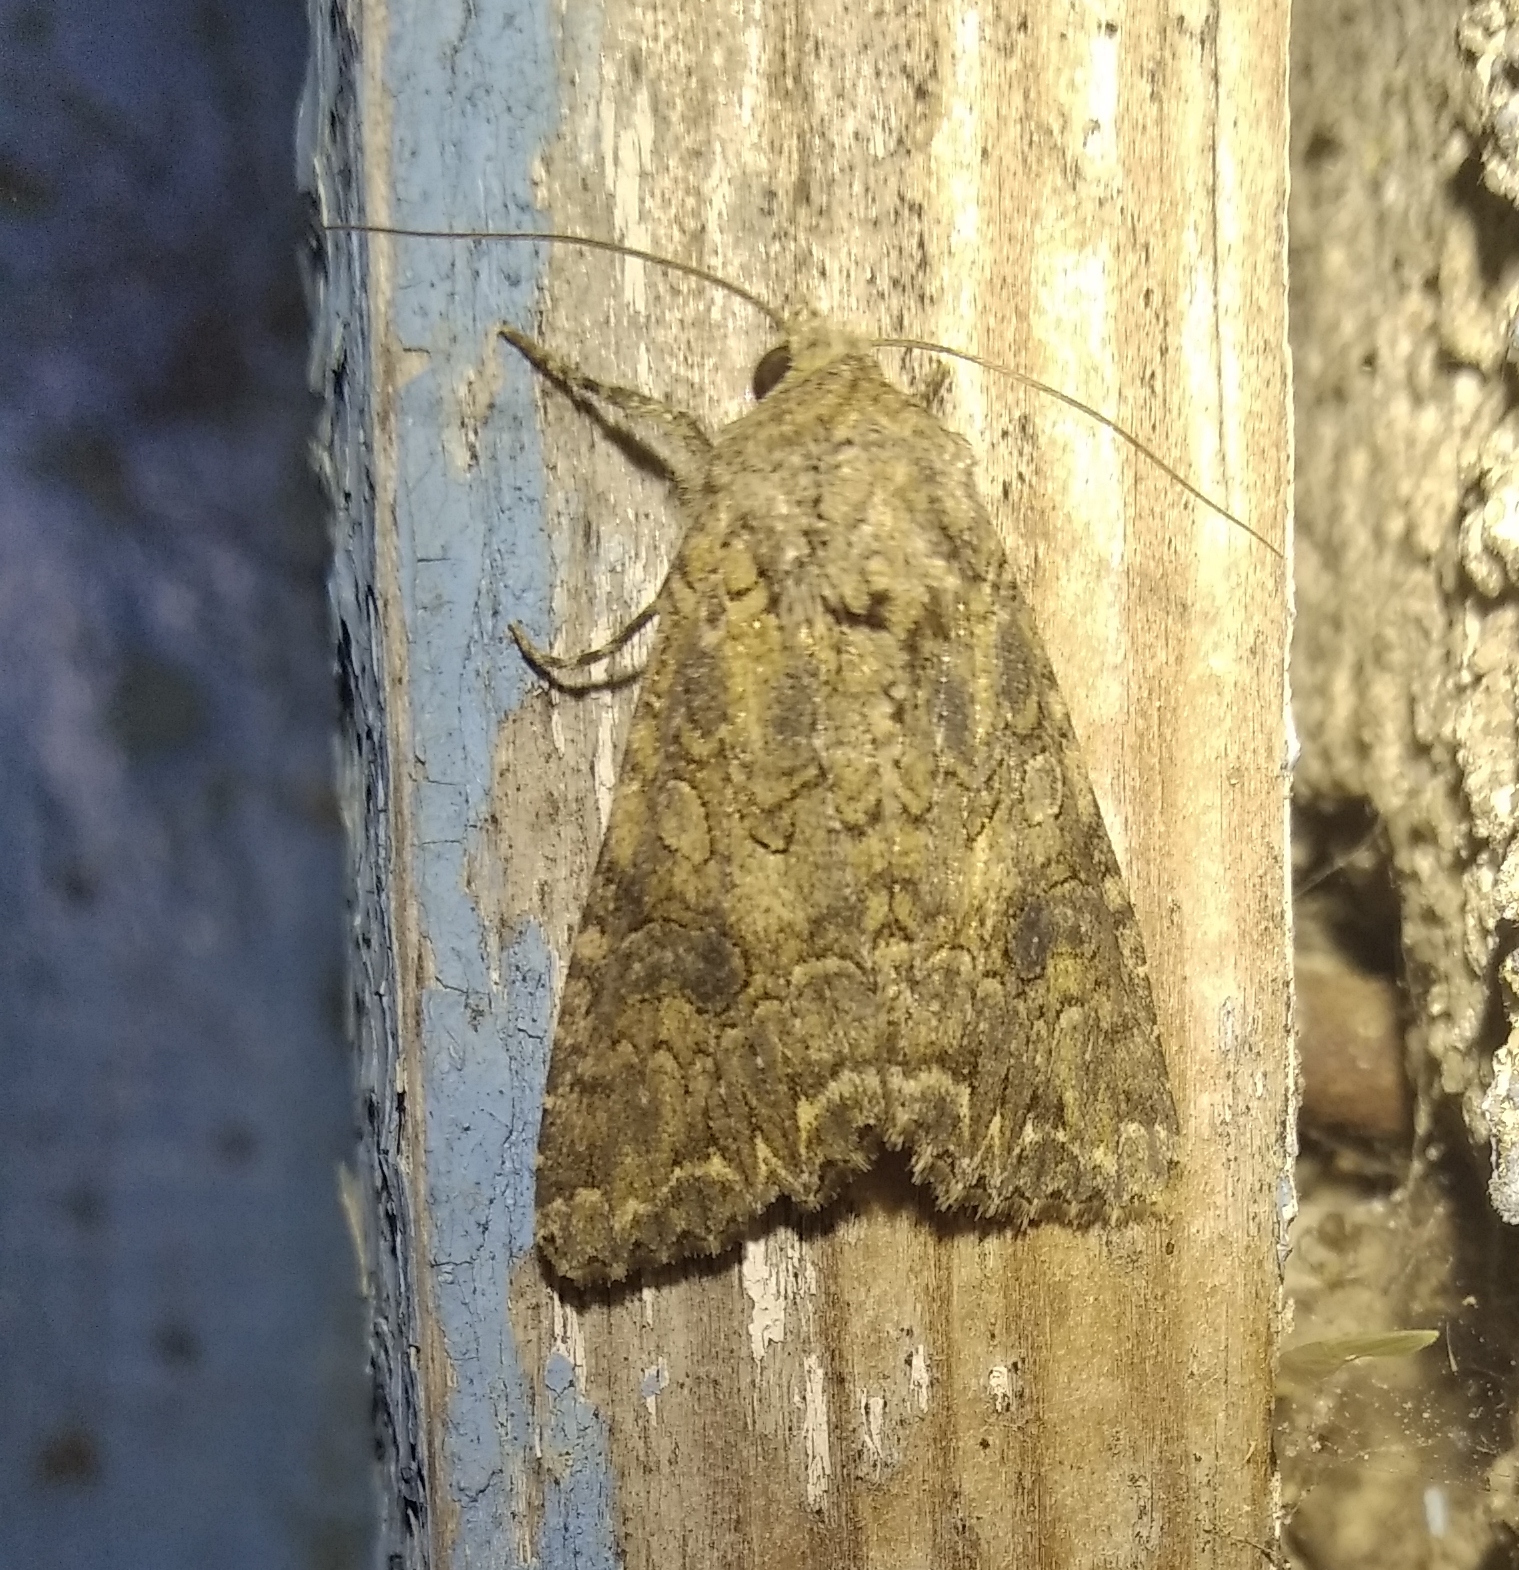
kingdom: Animalia
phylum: Arthropoda
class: Insecta
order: Lepidoptera
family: Noctuidae
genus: Anarta
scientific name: Anarta trifolii
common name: Clover cutworm moth
